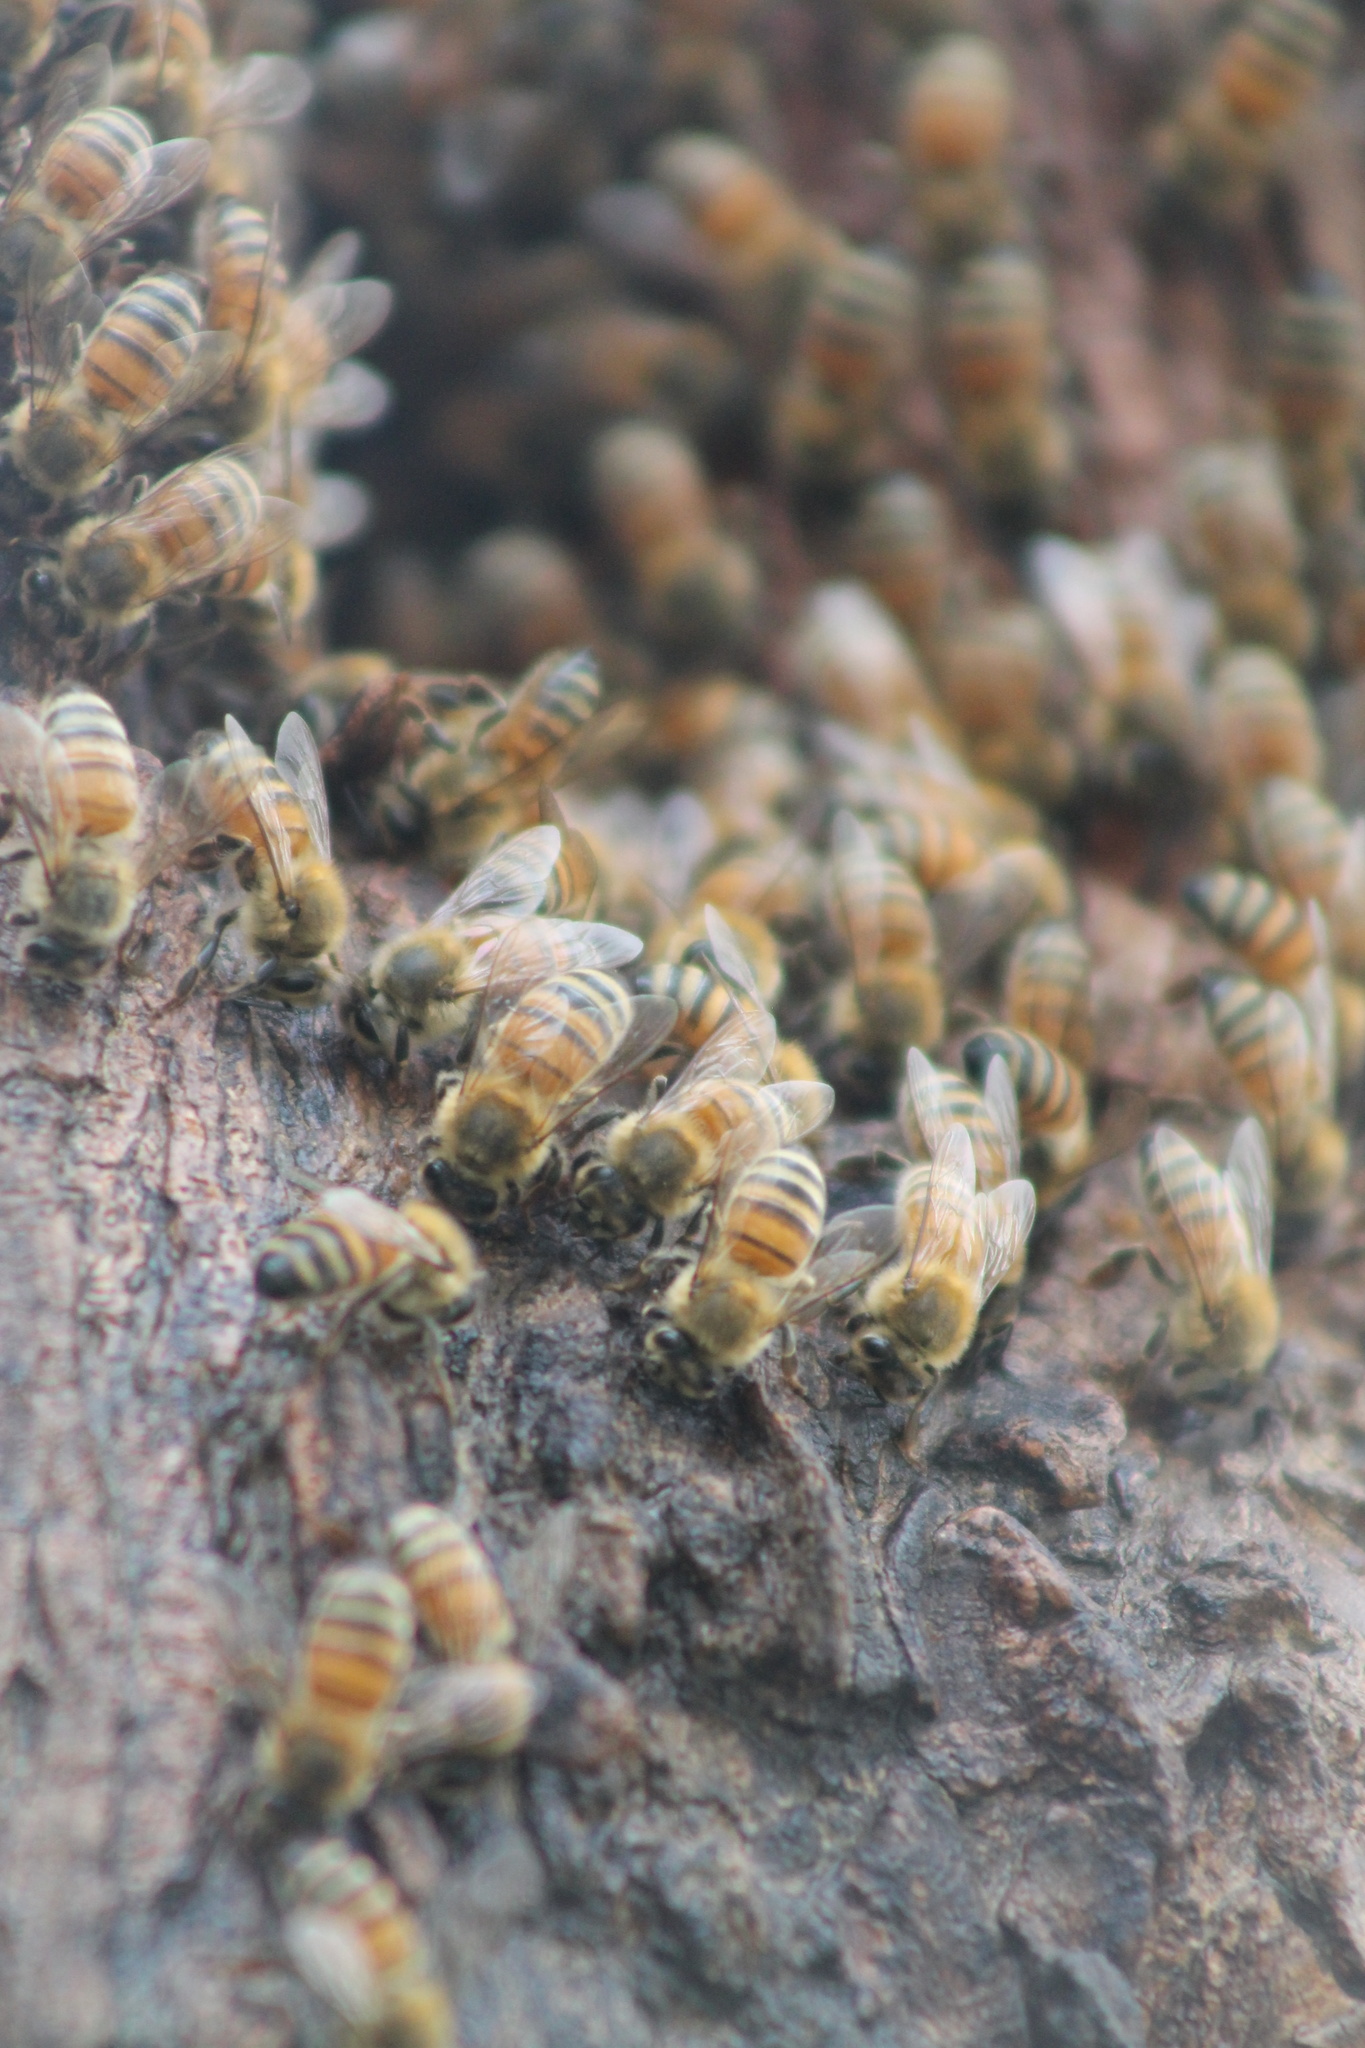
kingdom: Animalia
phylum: Arthropoda
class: Insecta
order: Hymenoptera
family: Apidae
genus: Apis
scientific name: Apis mellifera
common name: Honey bee
